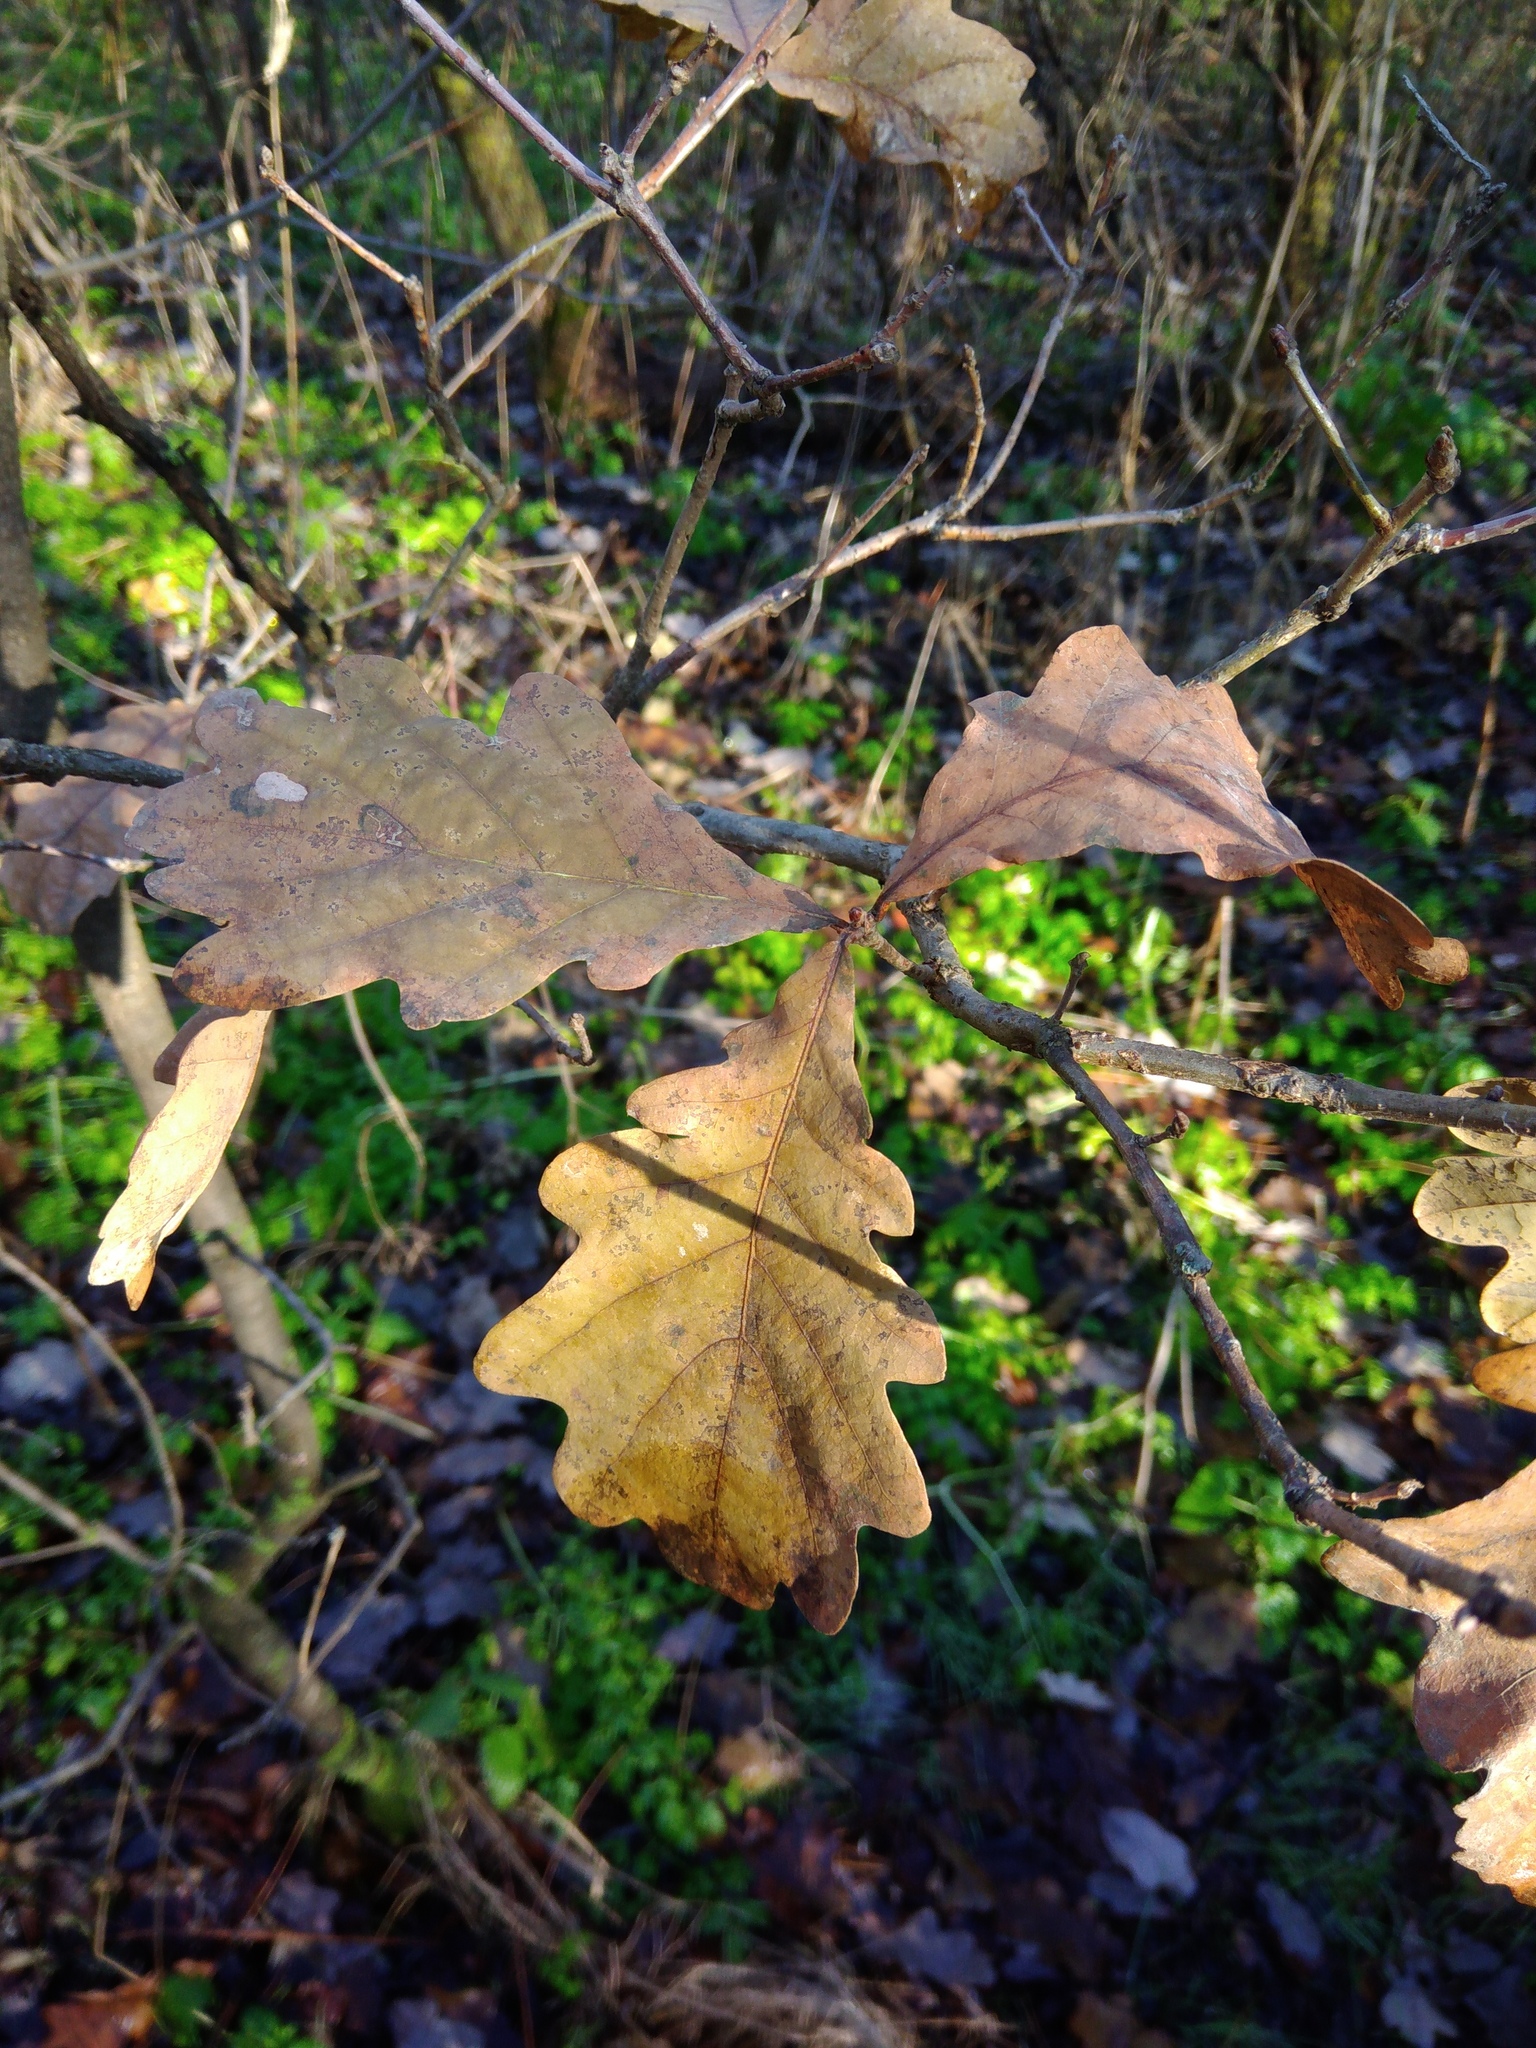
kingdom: Plantae
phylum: Tracheophyta
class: Magnoliopsida
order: Fagales
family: Fagaceae
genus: Quercus
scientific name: Quercus robur
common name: Pedunculate oak
